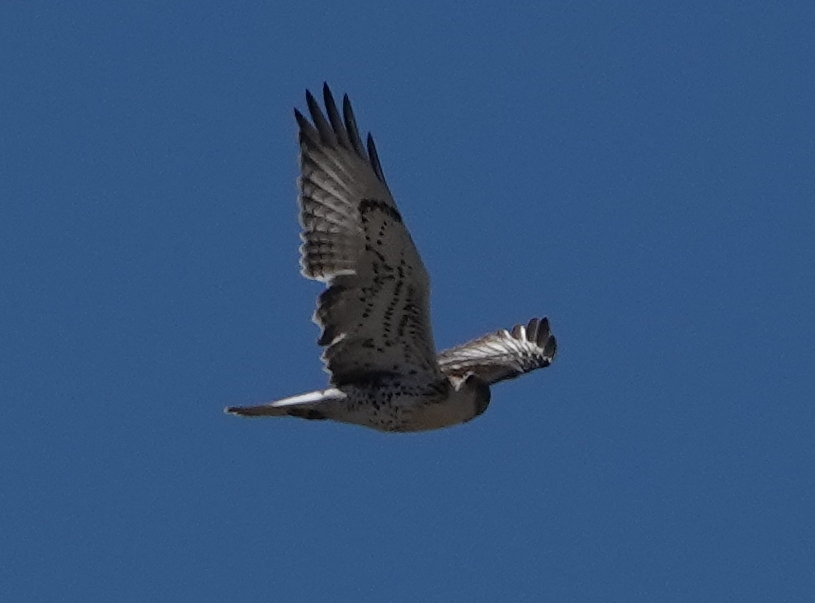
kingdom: Animalia
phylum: Chordata
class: Aves
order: Accipitriformes
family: Accipitridae
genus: Buteo
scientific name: Buteo regalis
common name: Ferruginous hawk
